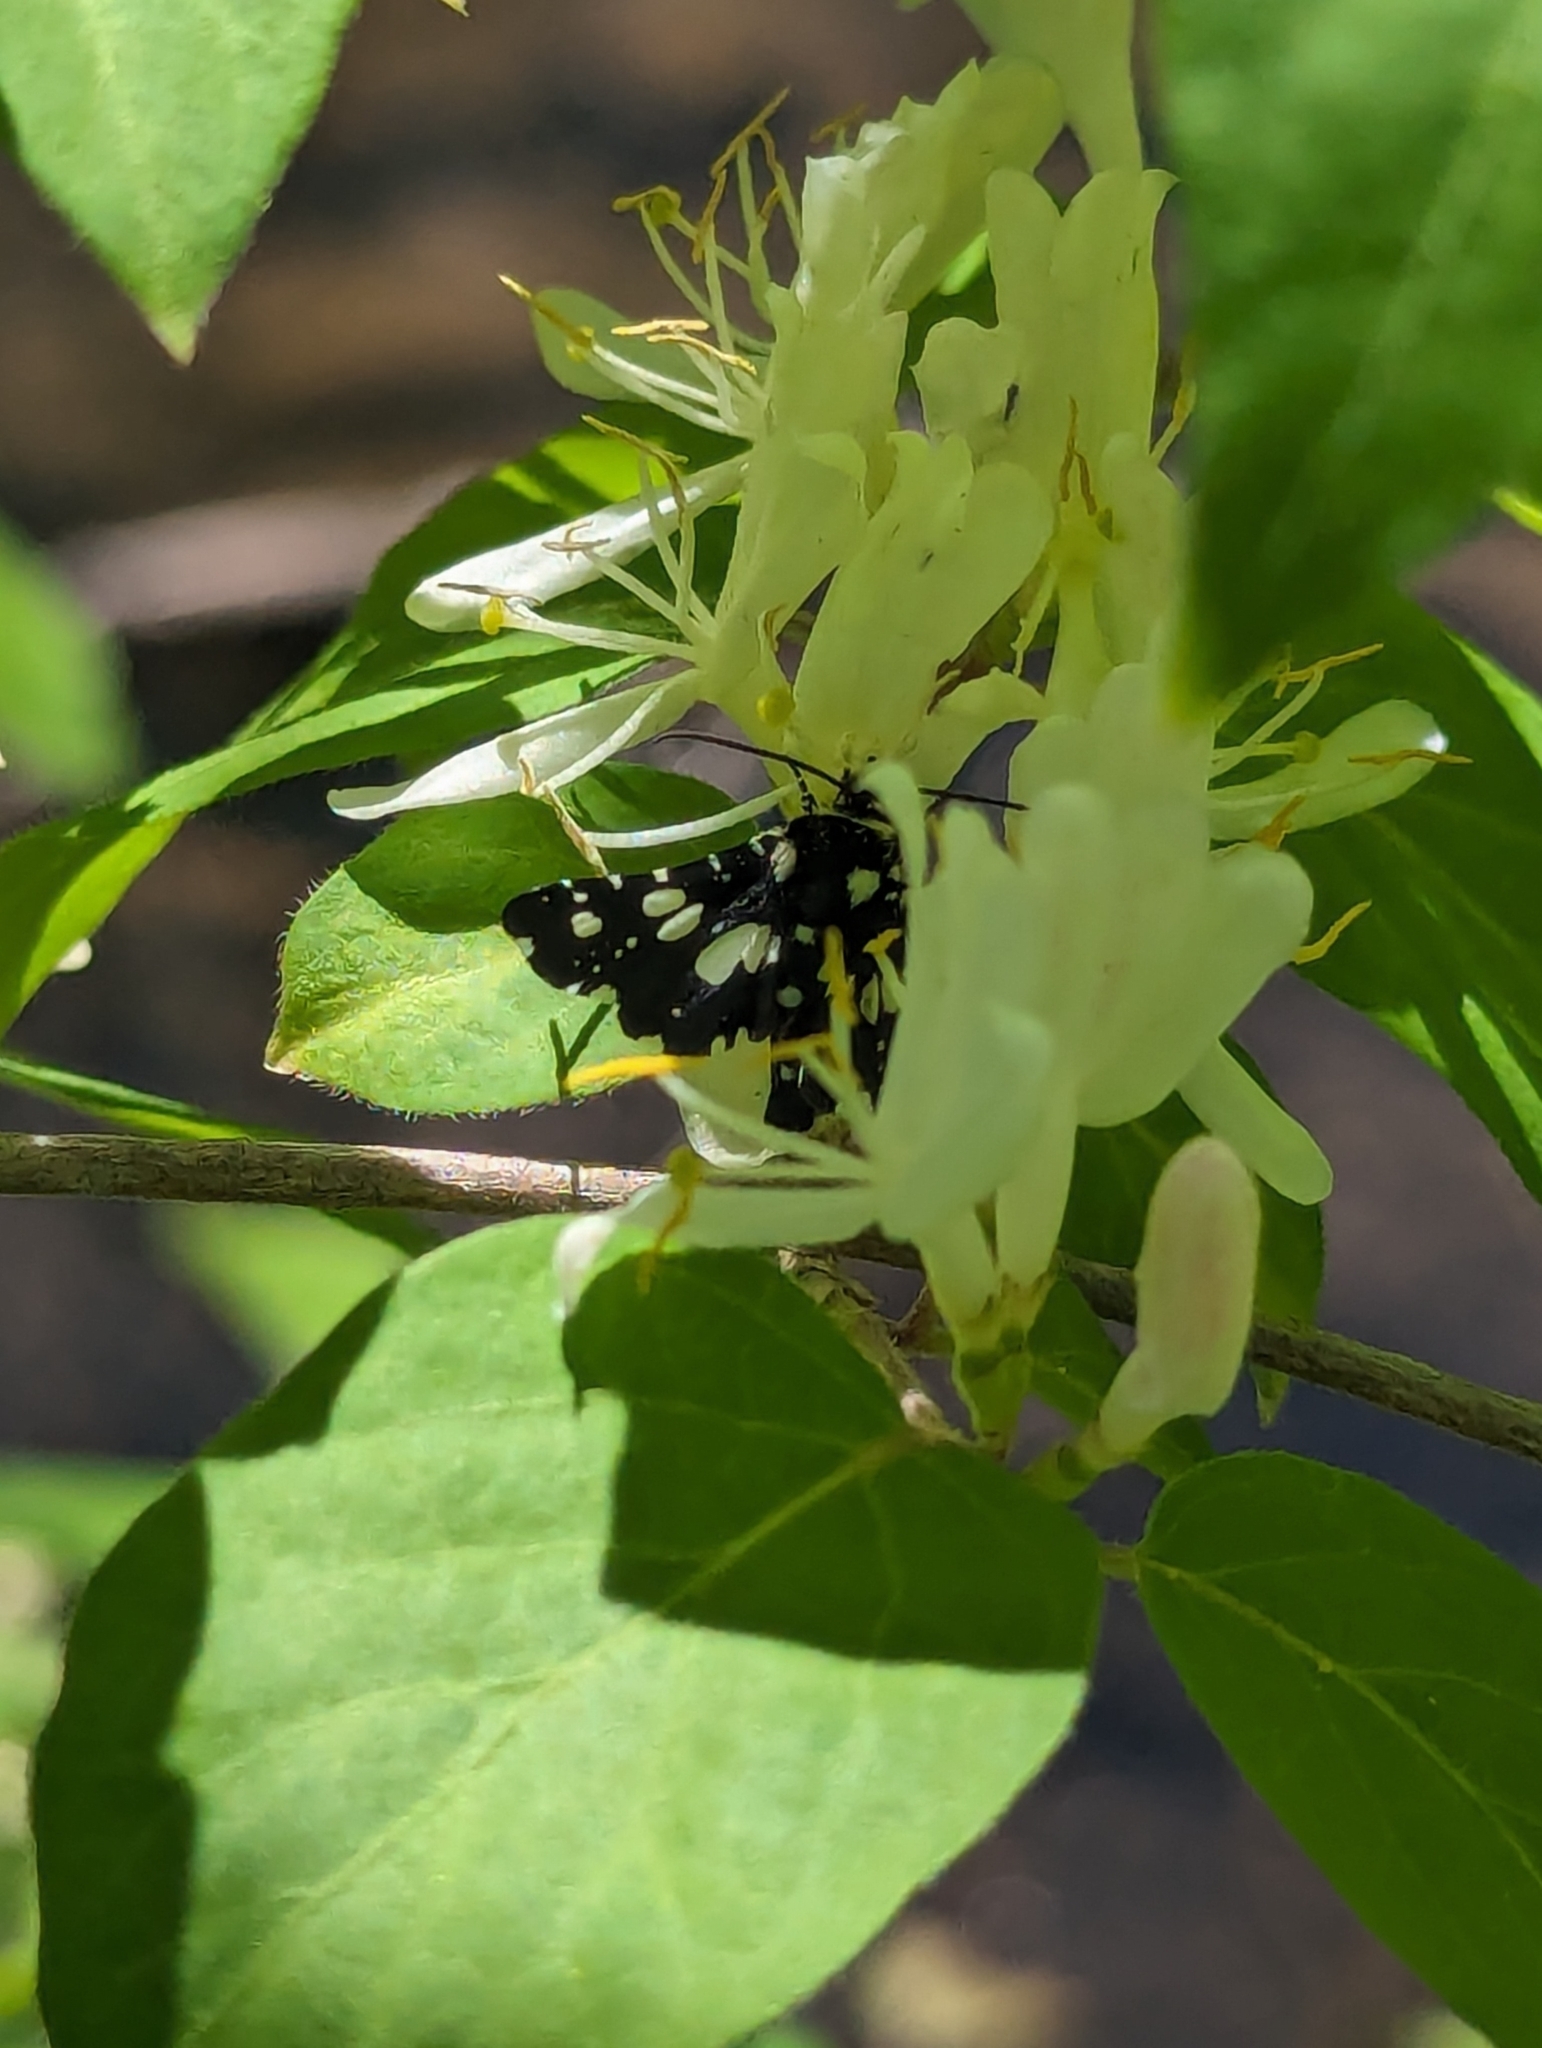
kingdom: Animalia
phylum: Arthropoda
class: Insecta
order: Lepidoptera
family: Thyrididae
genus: Pseudothyris
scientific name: Pseudothyris sepulchralis
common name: Mournful thyris moth
